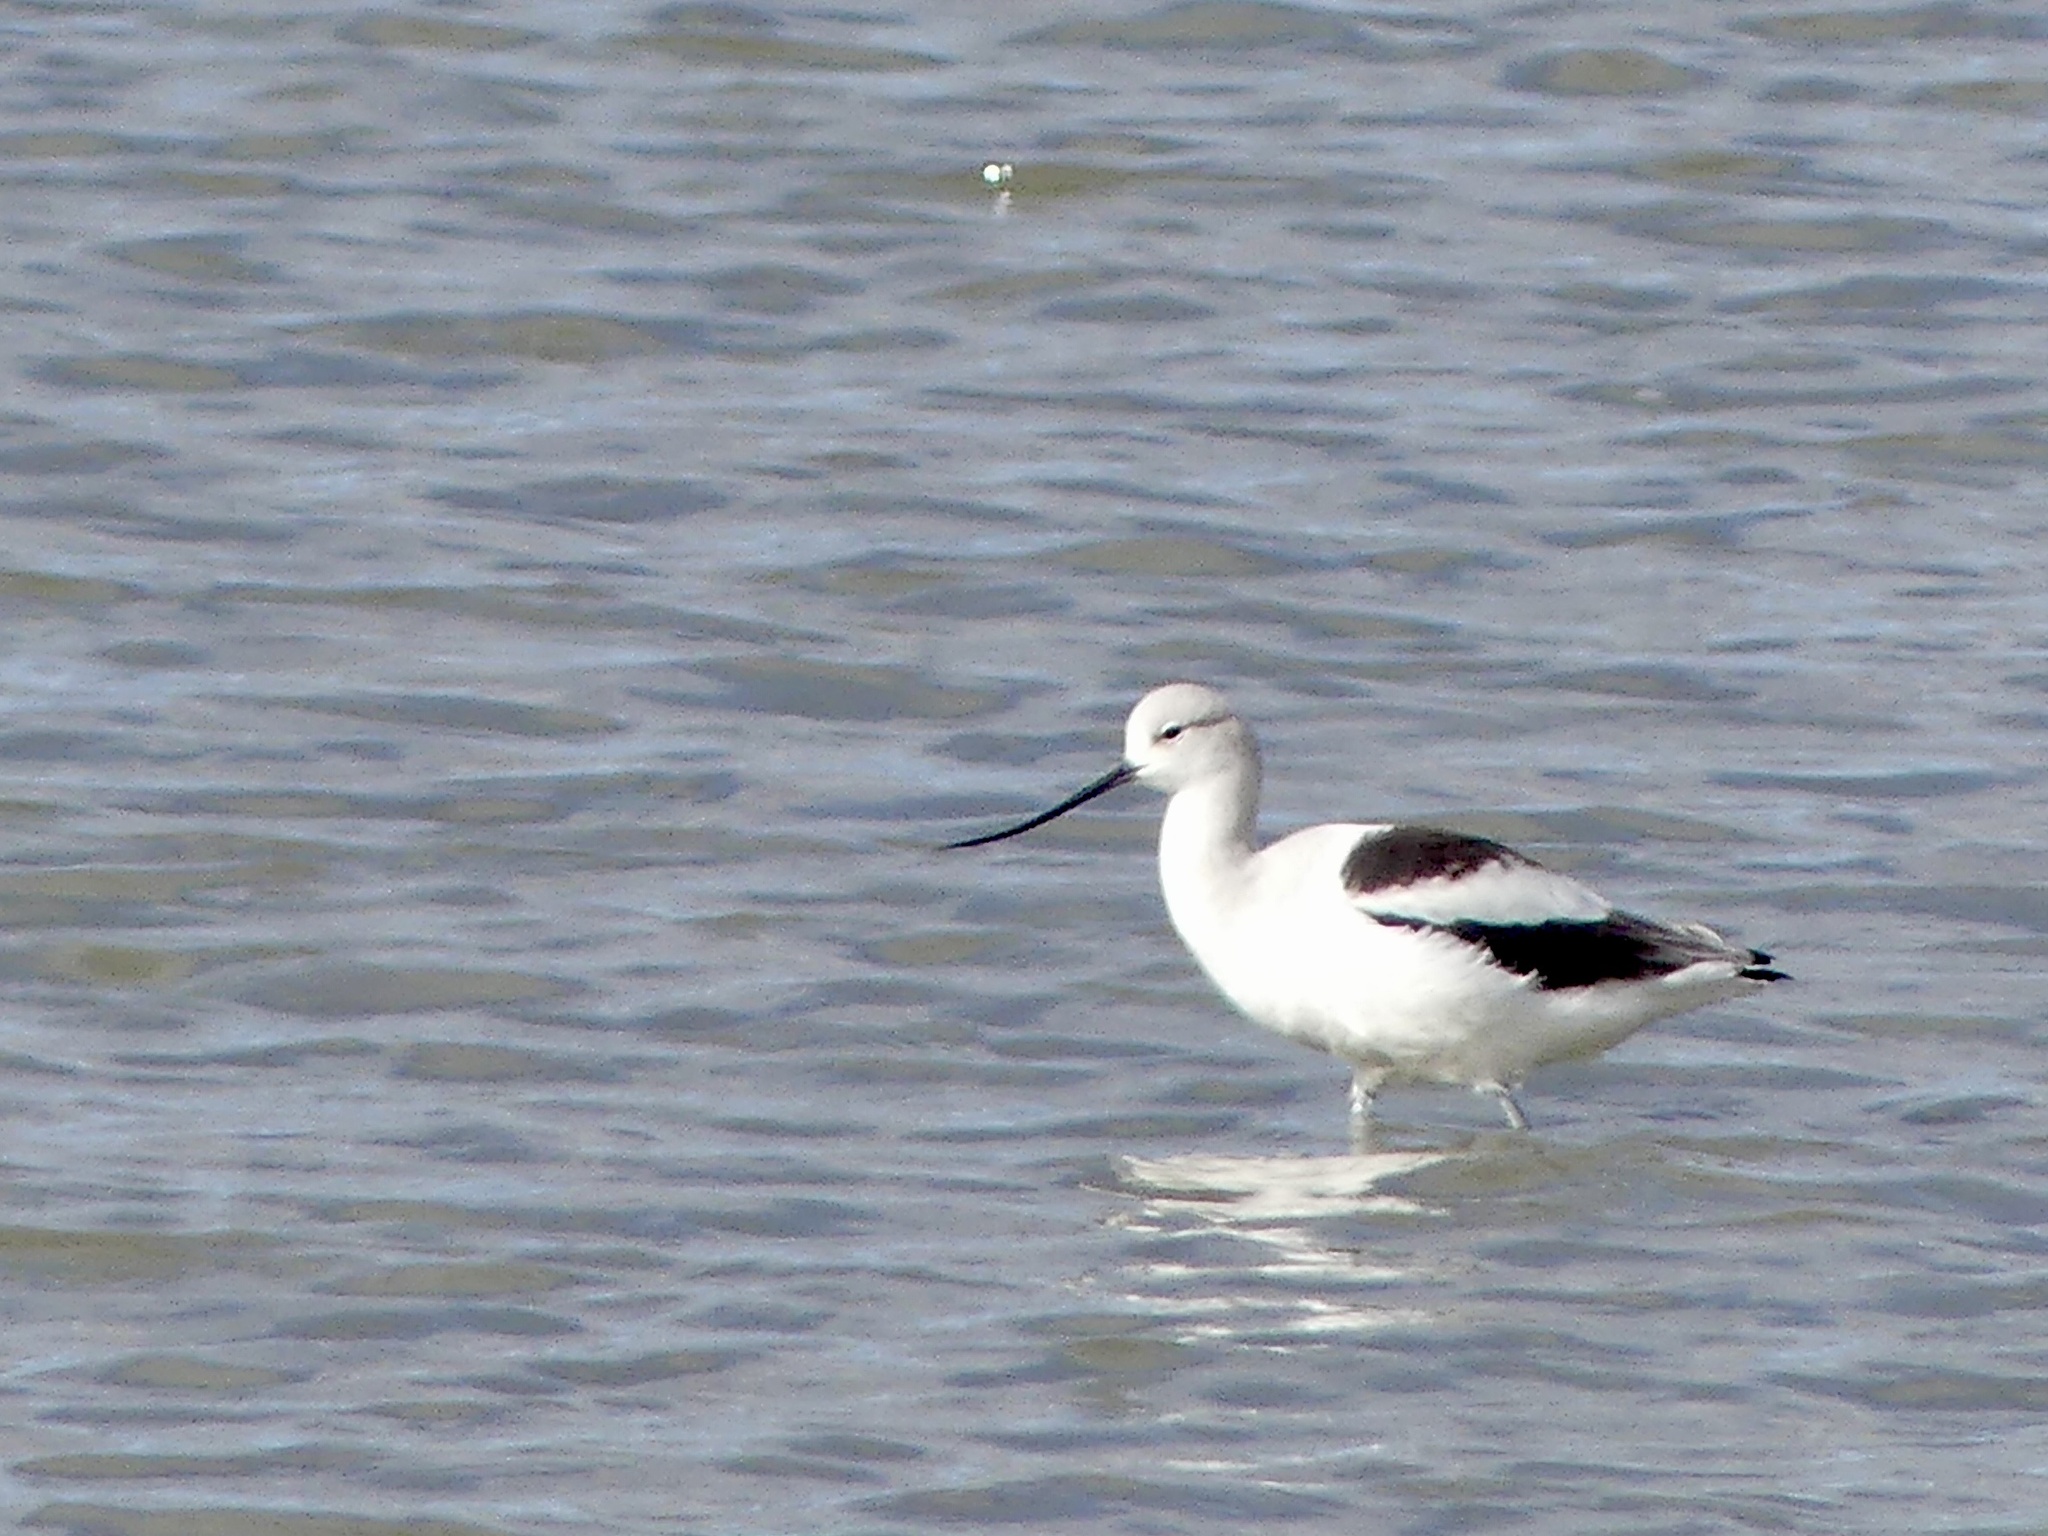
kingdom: Animalia
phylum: Chordata
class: Aves
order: Charadriiformes
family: Recurvirostridae
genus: Recurvirostra
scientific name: Recurvirostra americana
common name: American avocet
